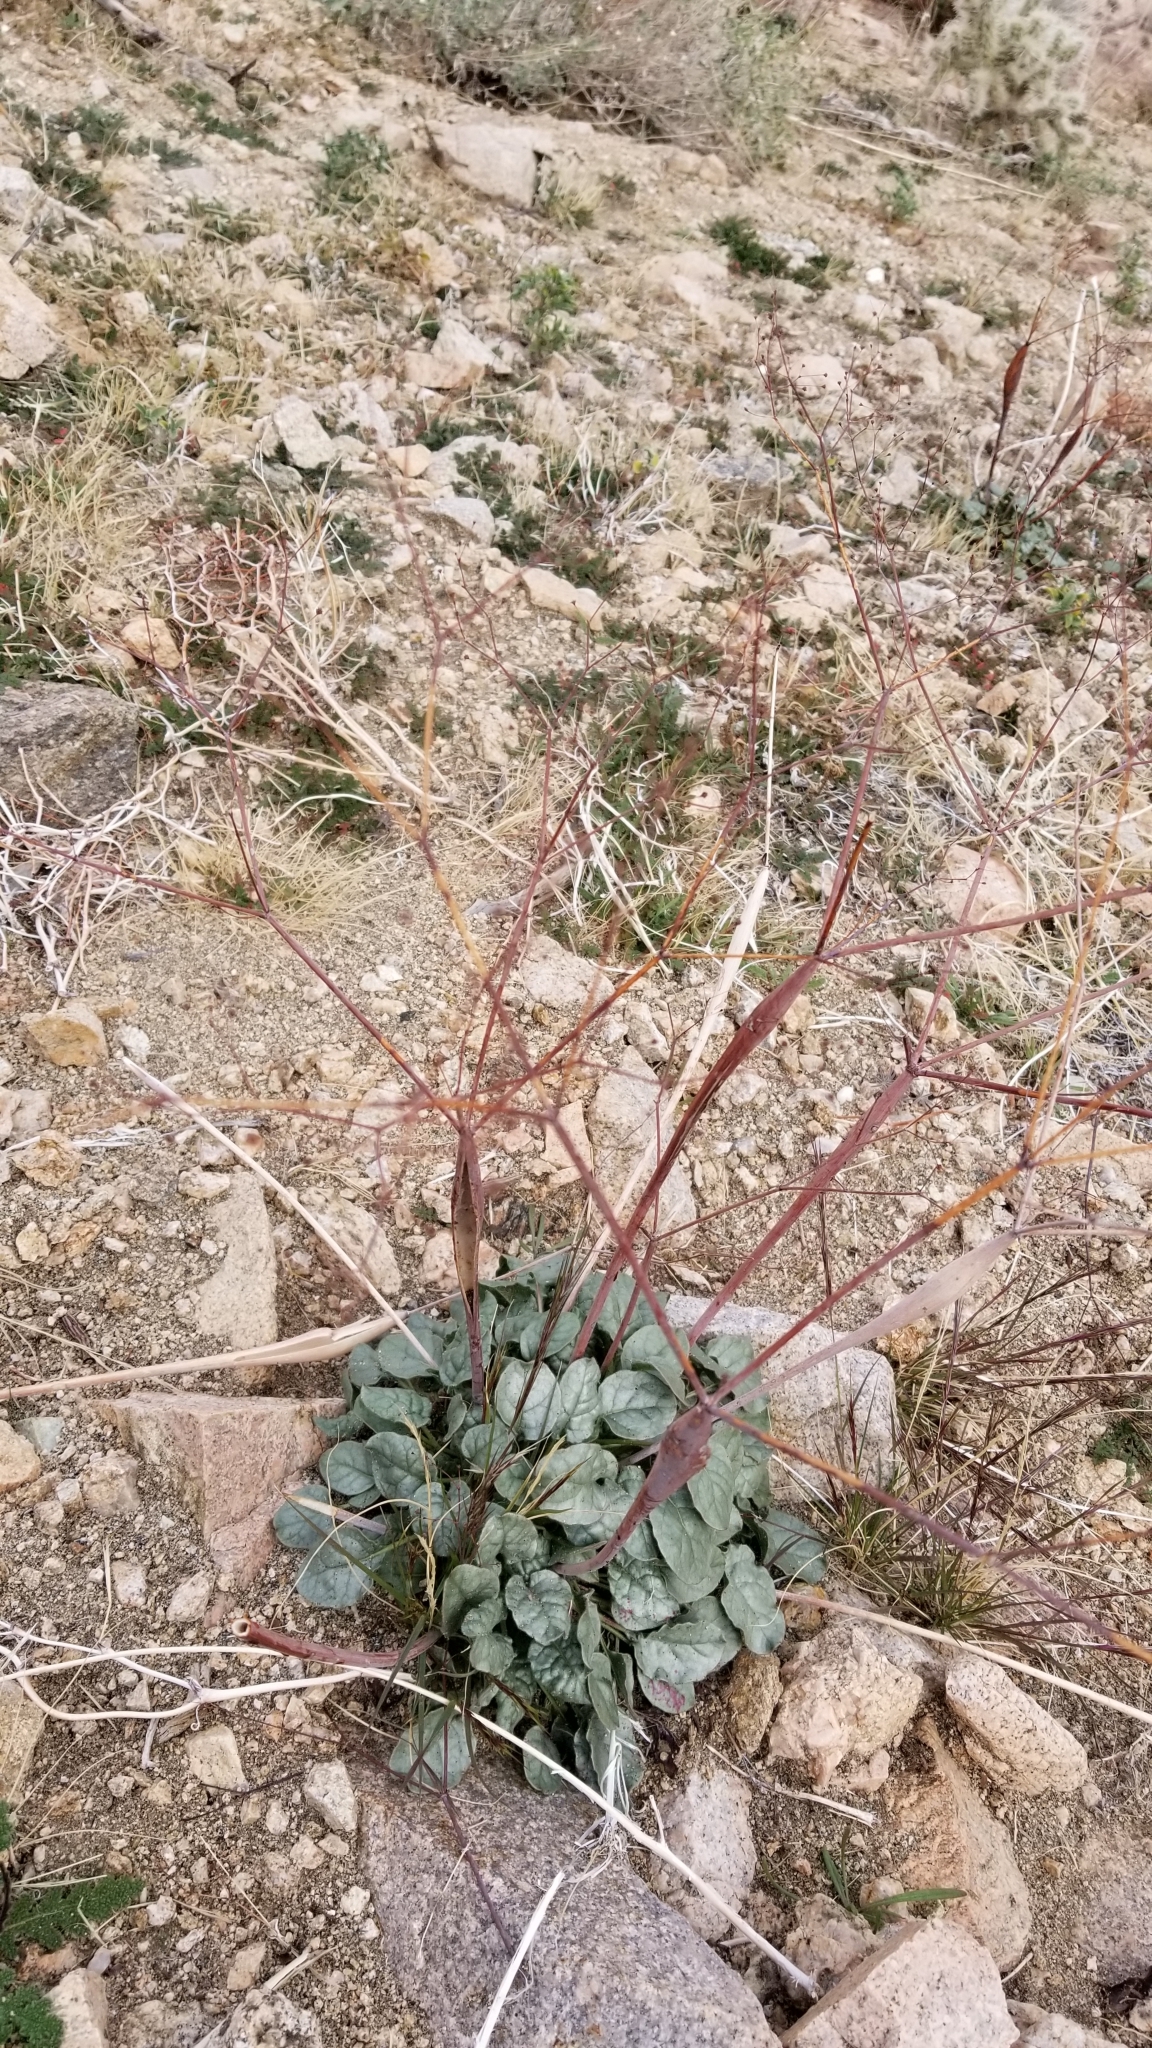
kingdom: Plantae
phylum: Tracheophyta
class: Magnoliopsida
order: Caryophyllales
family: Polygonaceae
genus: Eriogonum
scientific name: Eriogonum inflatum
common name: Desert trumpet
